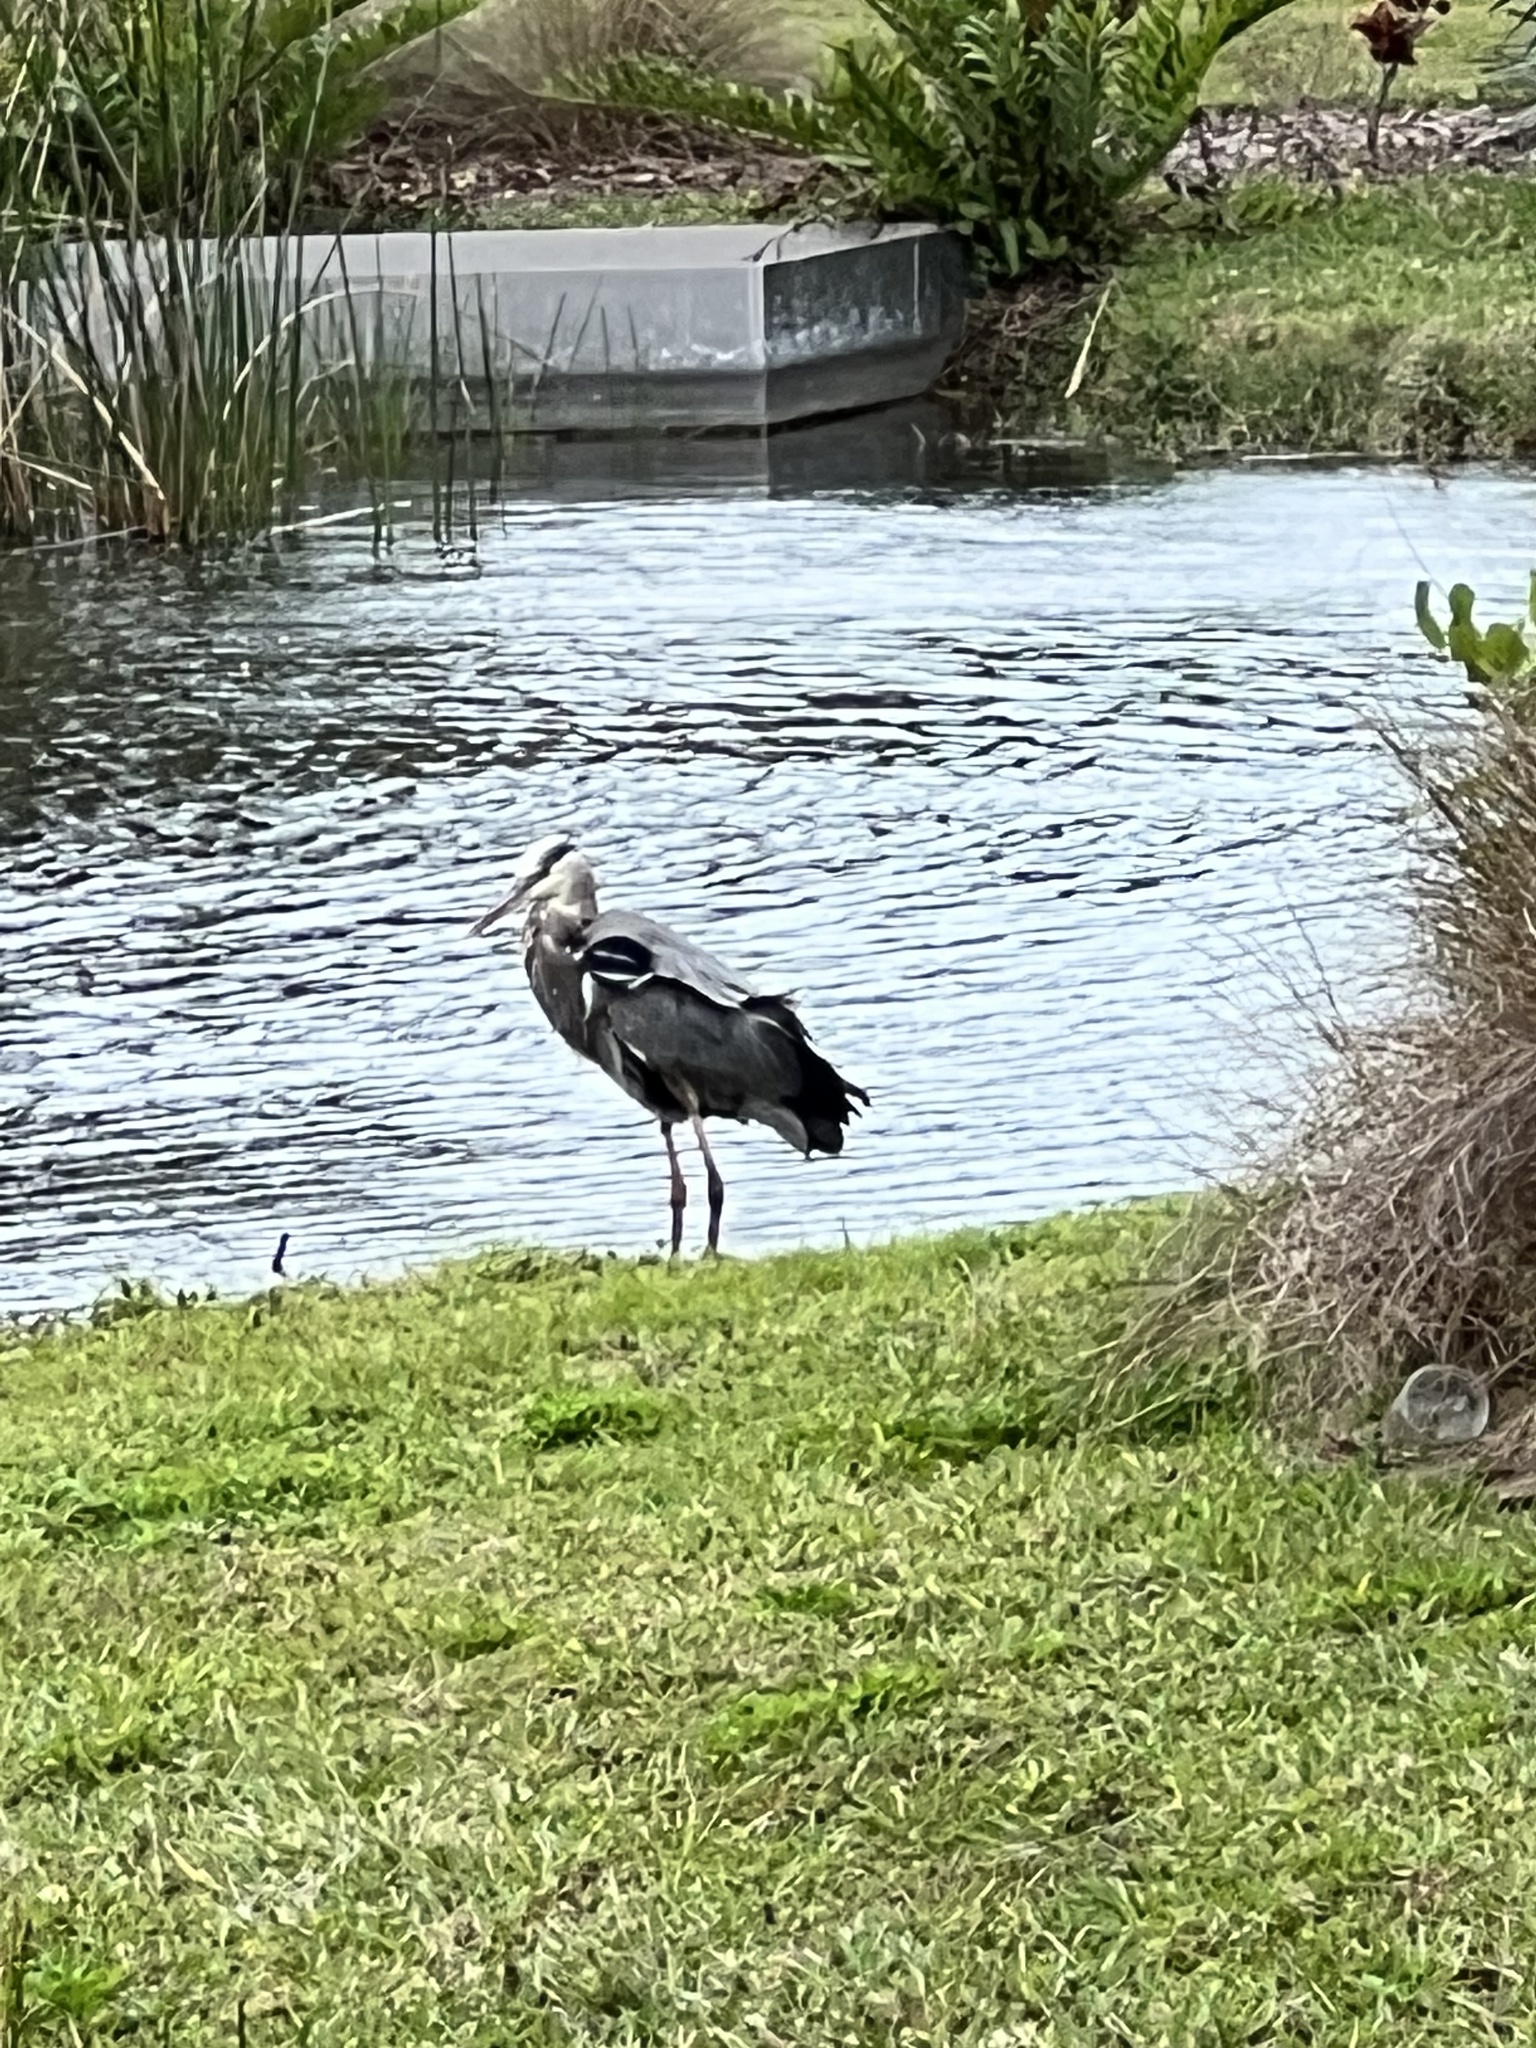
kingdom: Animalia
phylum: Chordata
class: Aves
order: Pelecaniformes
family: Ardeidae
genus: Ardea
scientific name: Ardea herodias
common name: Great blue heron
